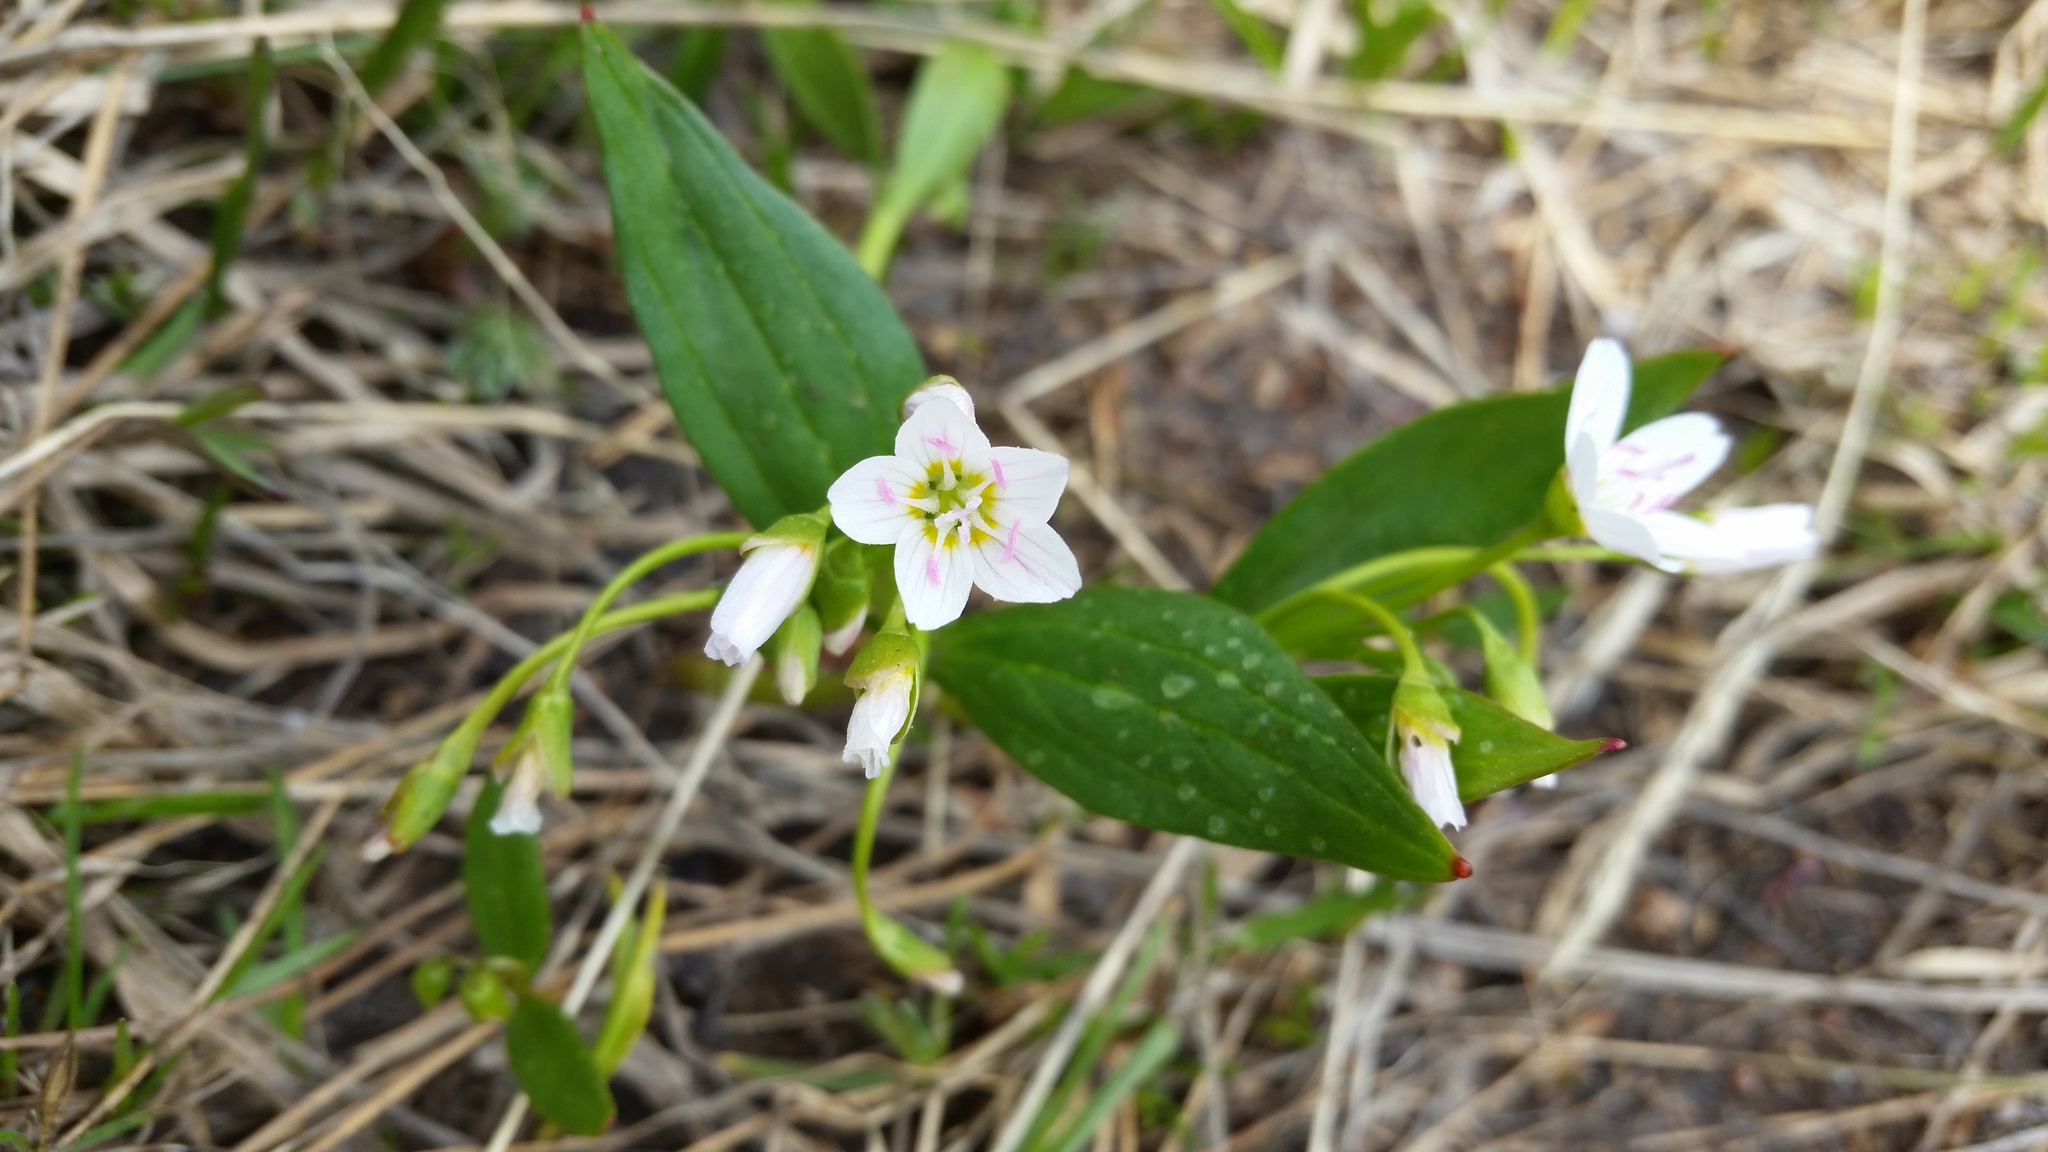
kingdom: Plantae
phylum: Tracheophyta
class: Magnoliopsida
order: Caryophyllales
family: Montiaceae
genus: Claytonia
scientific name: Claytonia lanceolata
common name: Western spring-beauty
